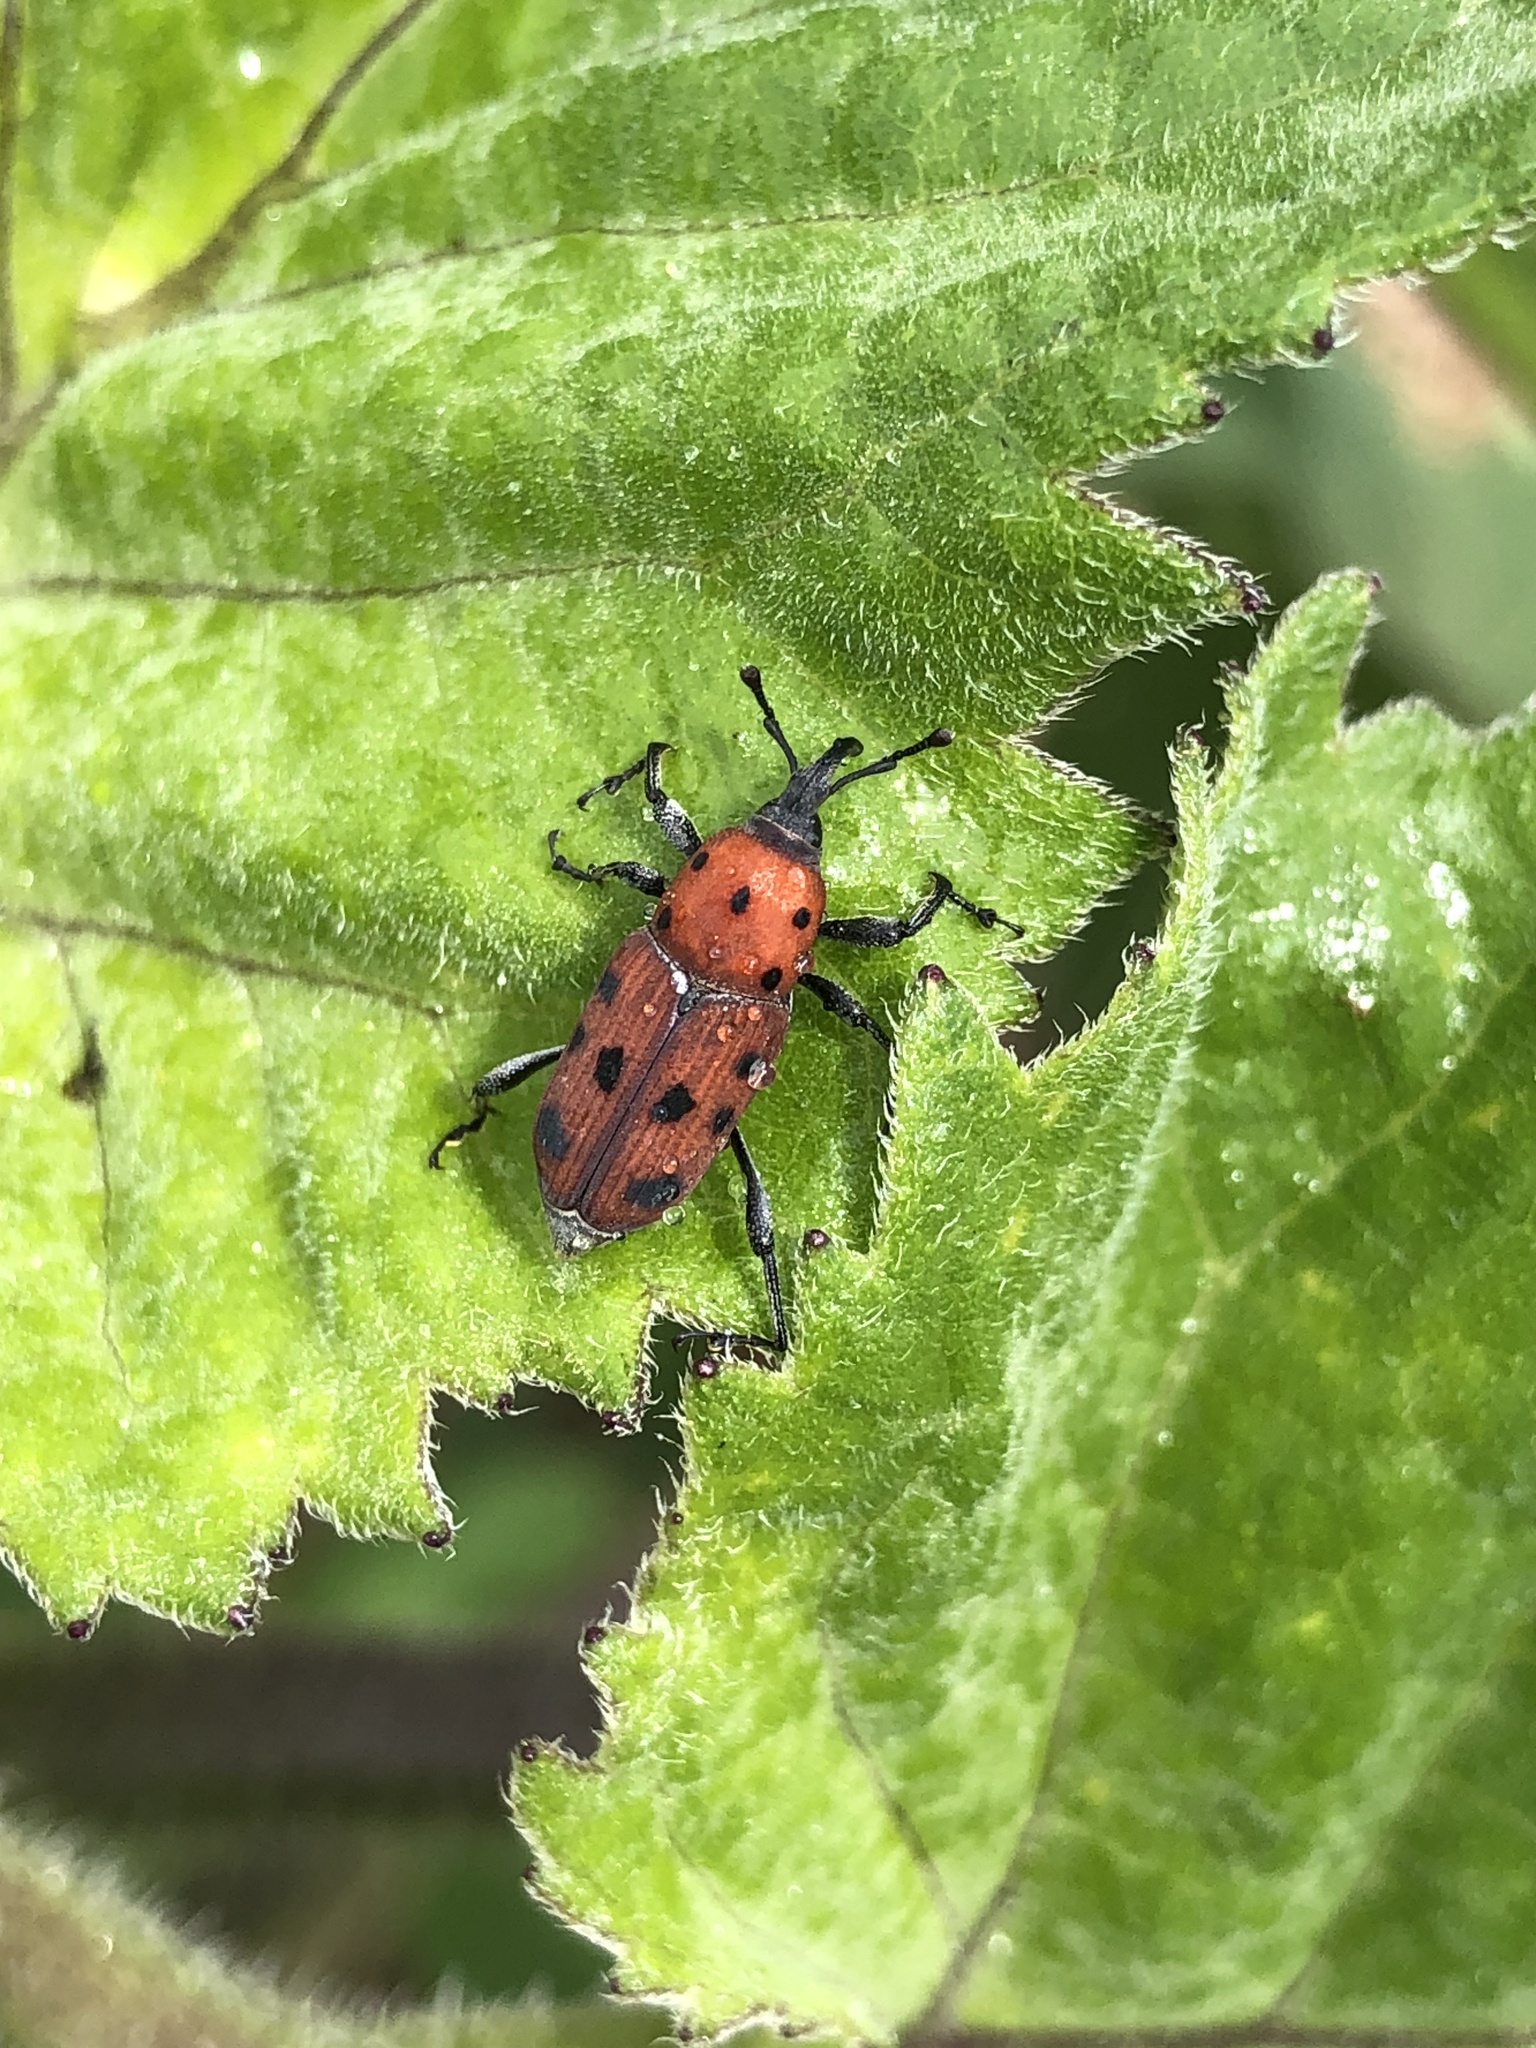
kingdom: Animalia
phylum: Arthropoda
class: Insecta
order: Coleoptera
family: Dryophthoridae
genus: Rhodobaenus
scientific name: Rhodobaenus tredecimpunctatus
